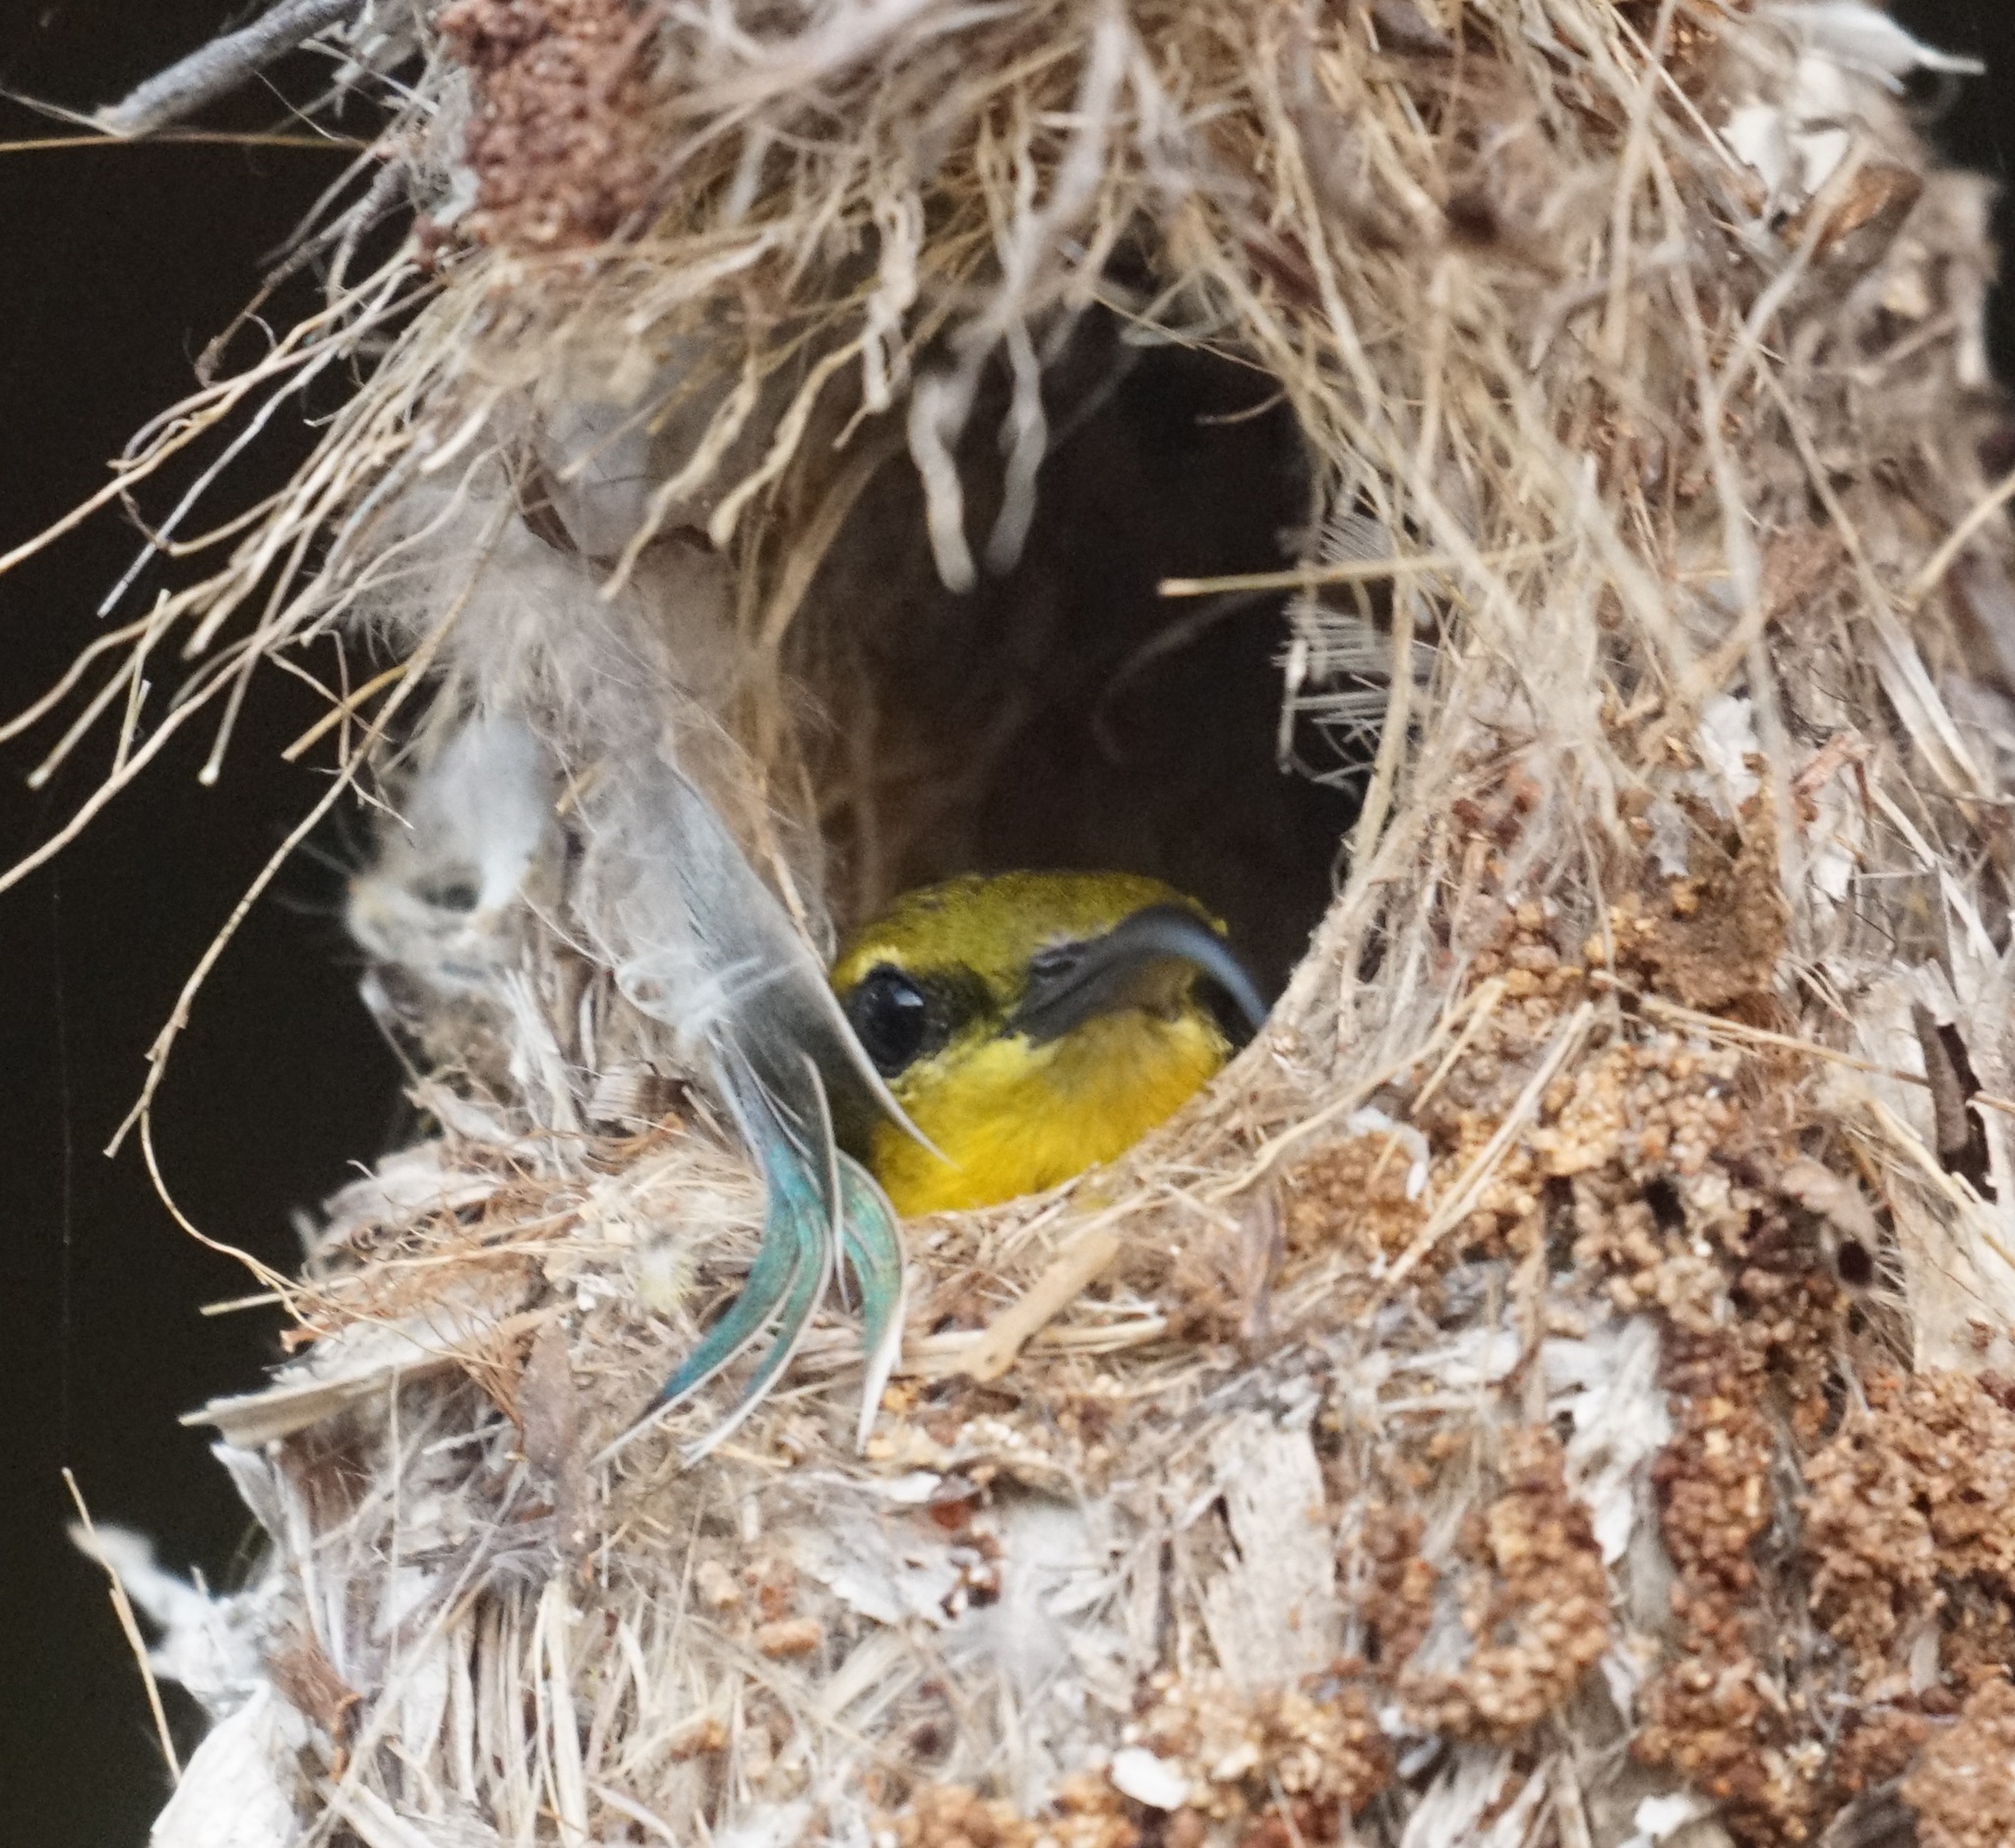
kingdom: Animalia
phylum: Chordata
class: Aves
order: Passeriformes
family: Nectariniidae
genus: Cinnyris
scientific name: Cinnyris
